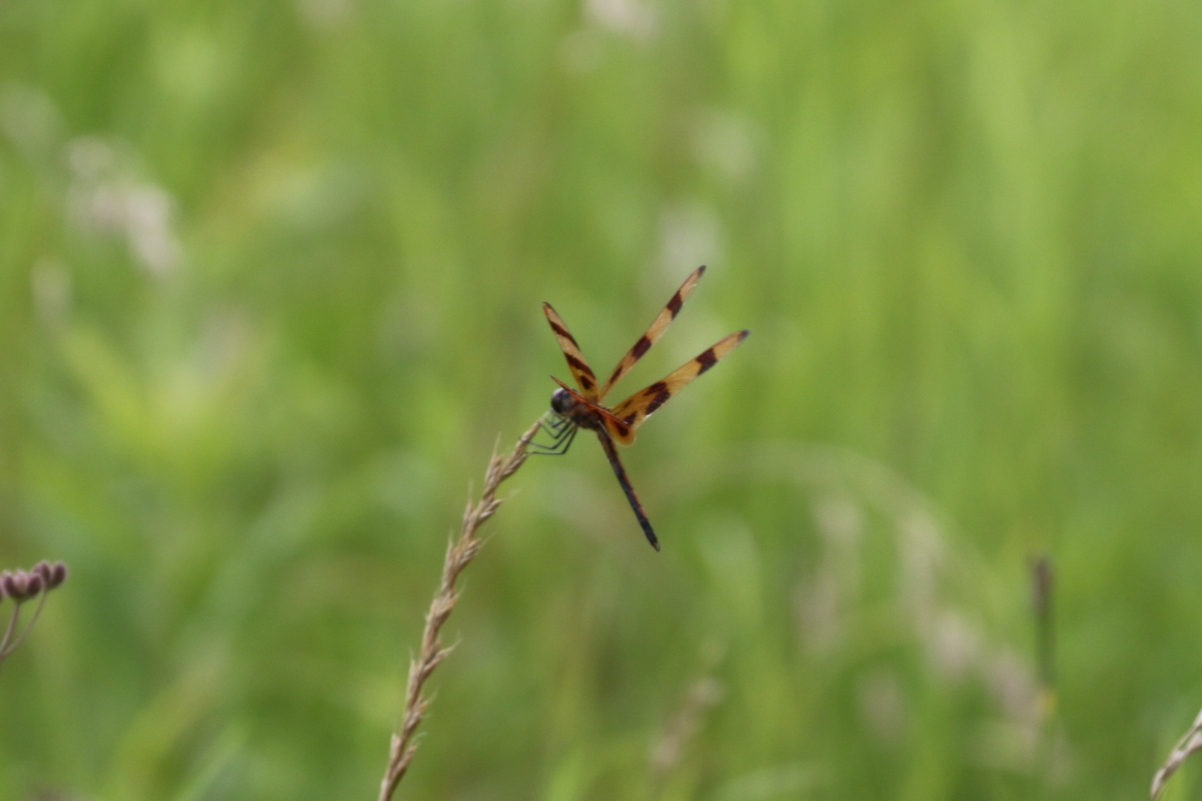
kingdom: Animalia
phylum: Arthropoda
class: Insecta
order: Odonata
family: Libellulidae
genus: Celithemis
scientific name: Celithemis eponina
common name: Halloween pennant
